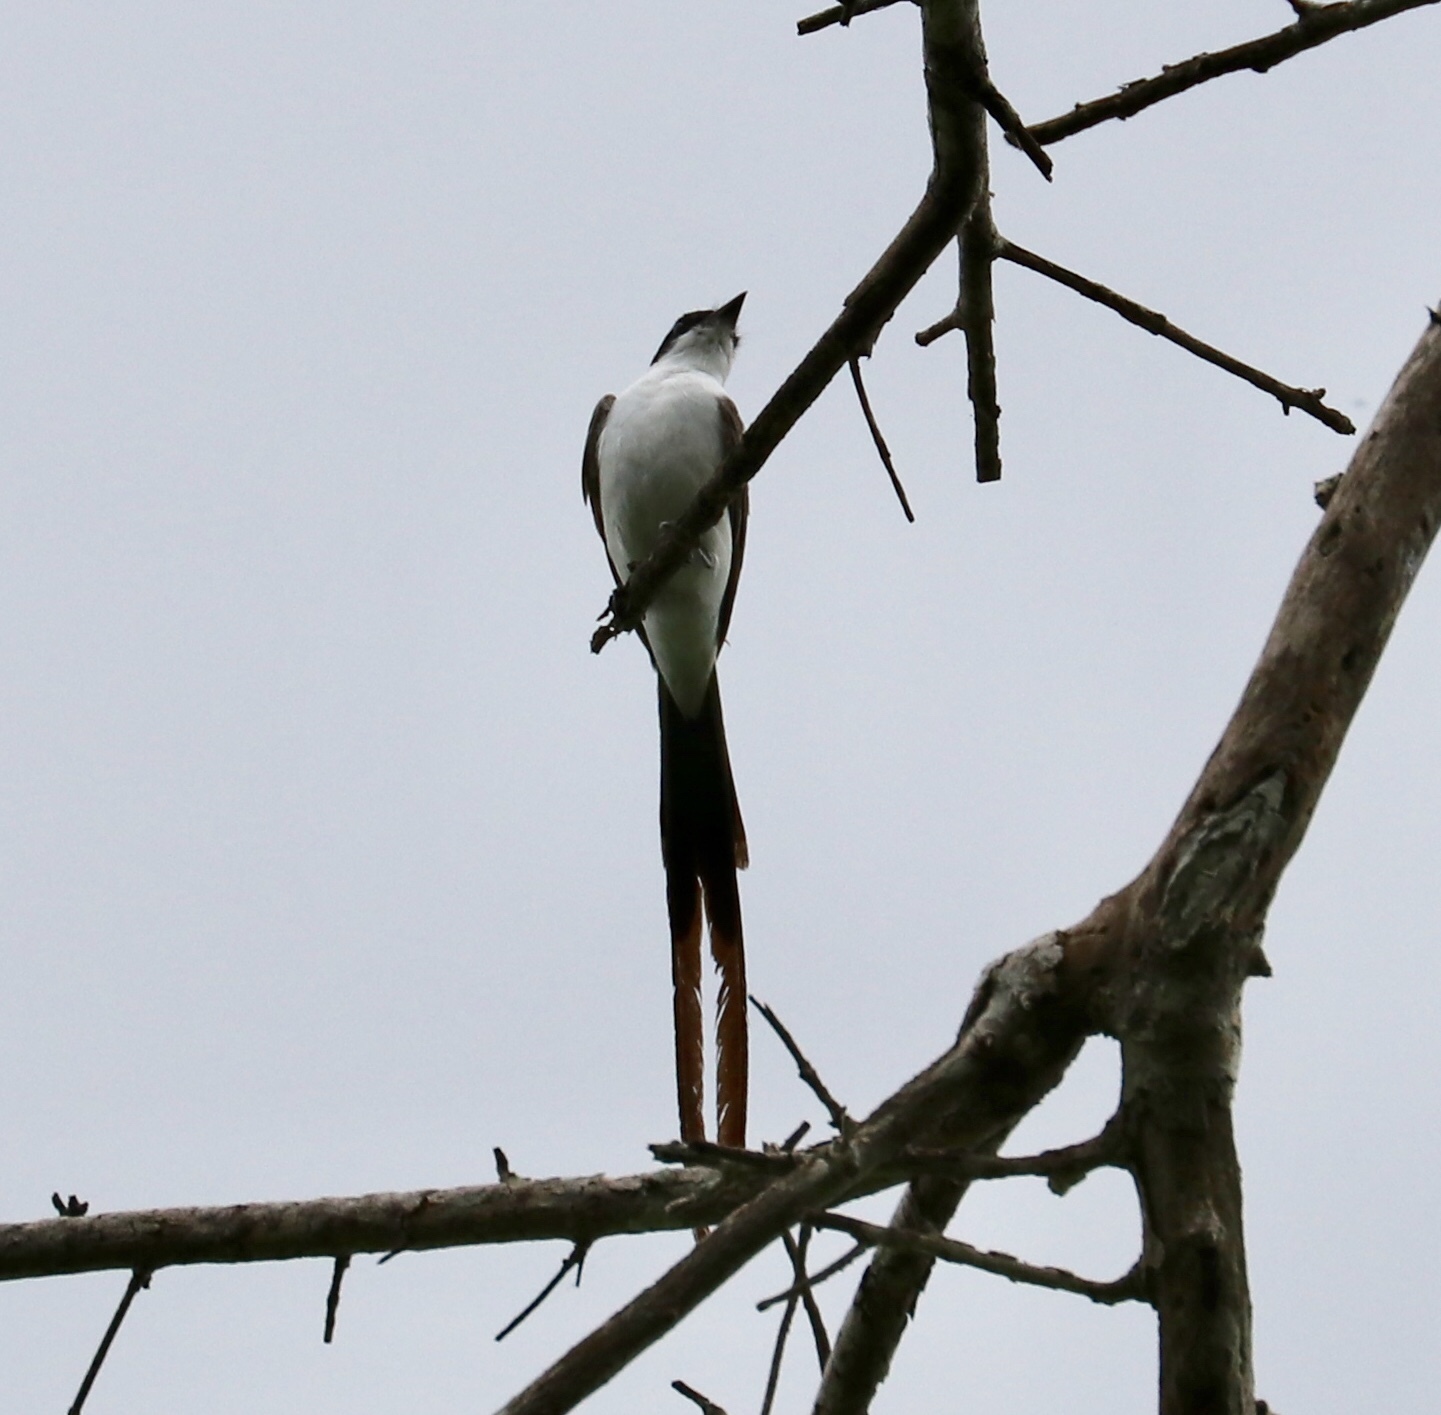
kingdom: Animalia
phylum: Chordata
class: Aves
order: Passeriformes
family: Tyrannidae
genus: Tyrannus
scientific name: Tyrannus savana
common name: Fork-tailed flycatcher
